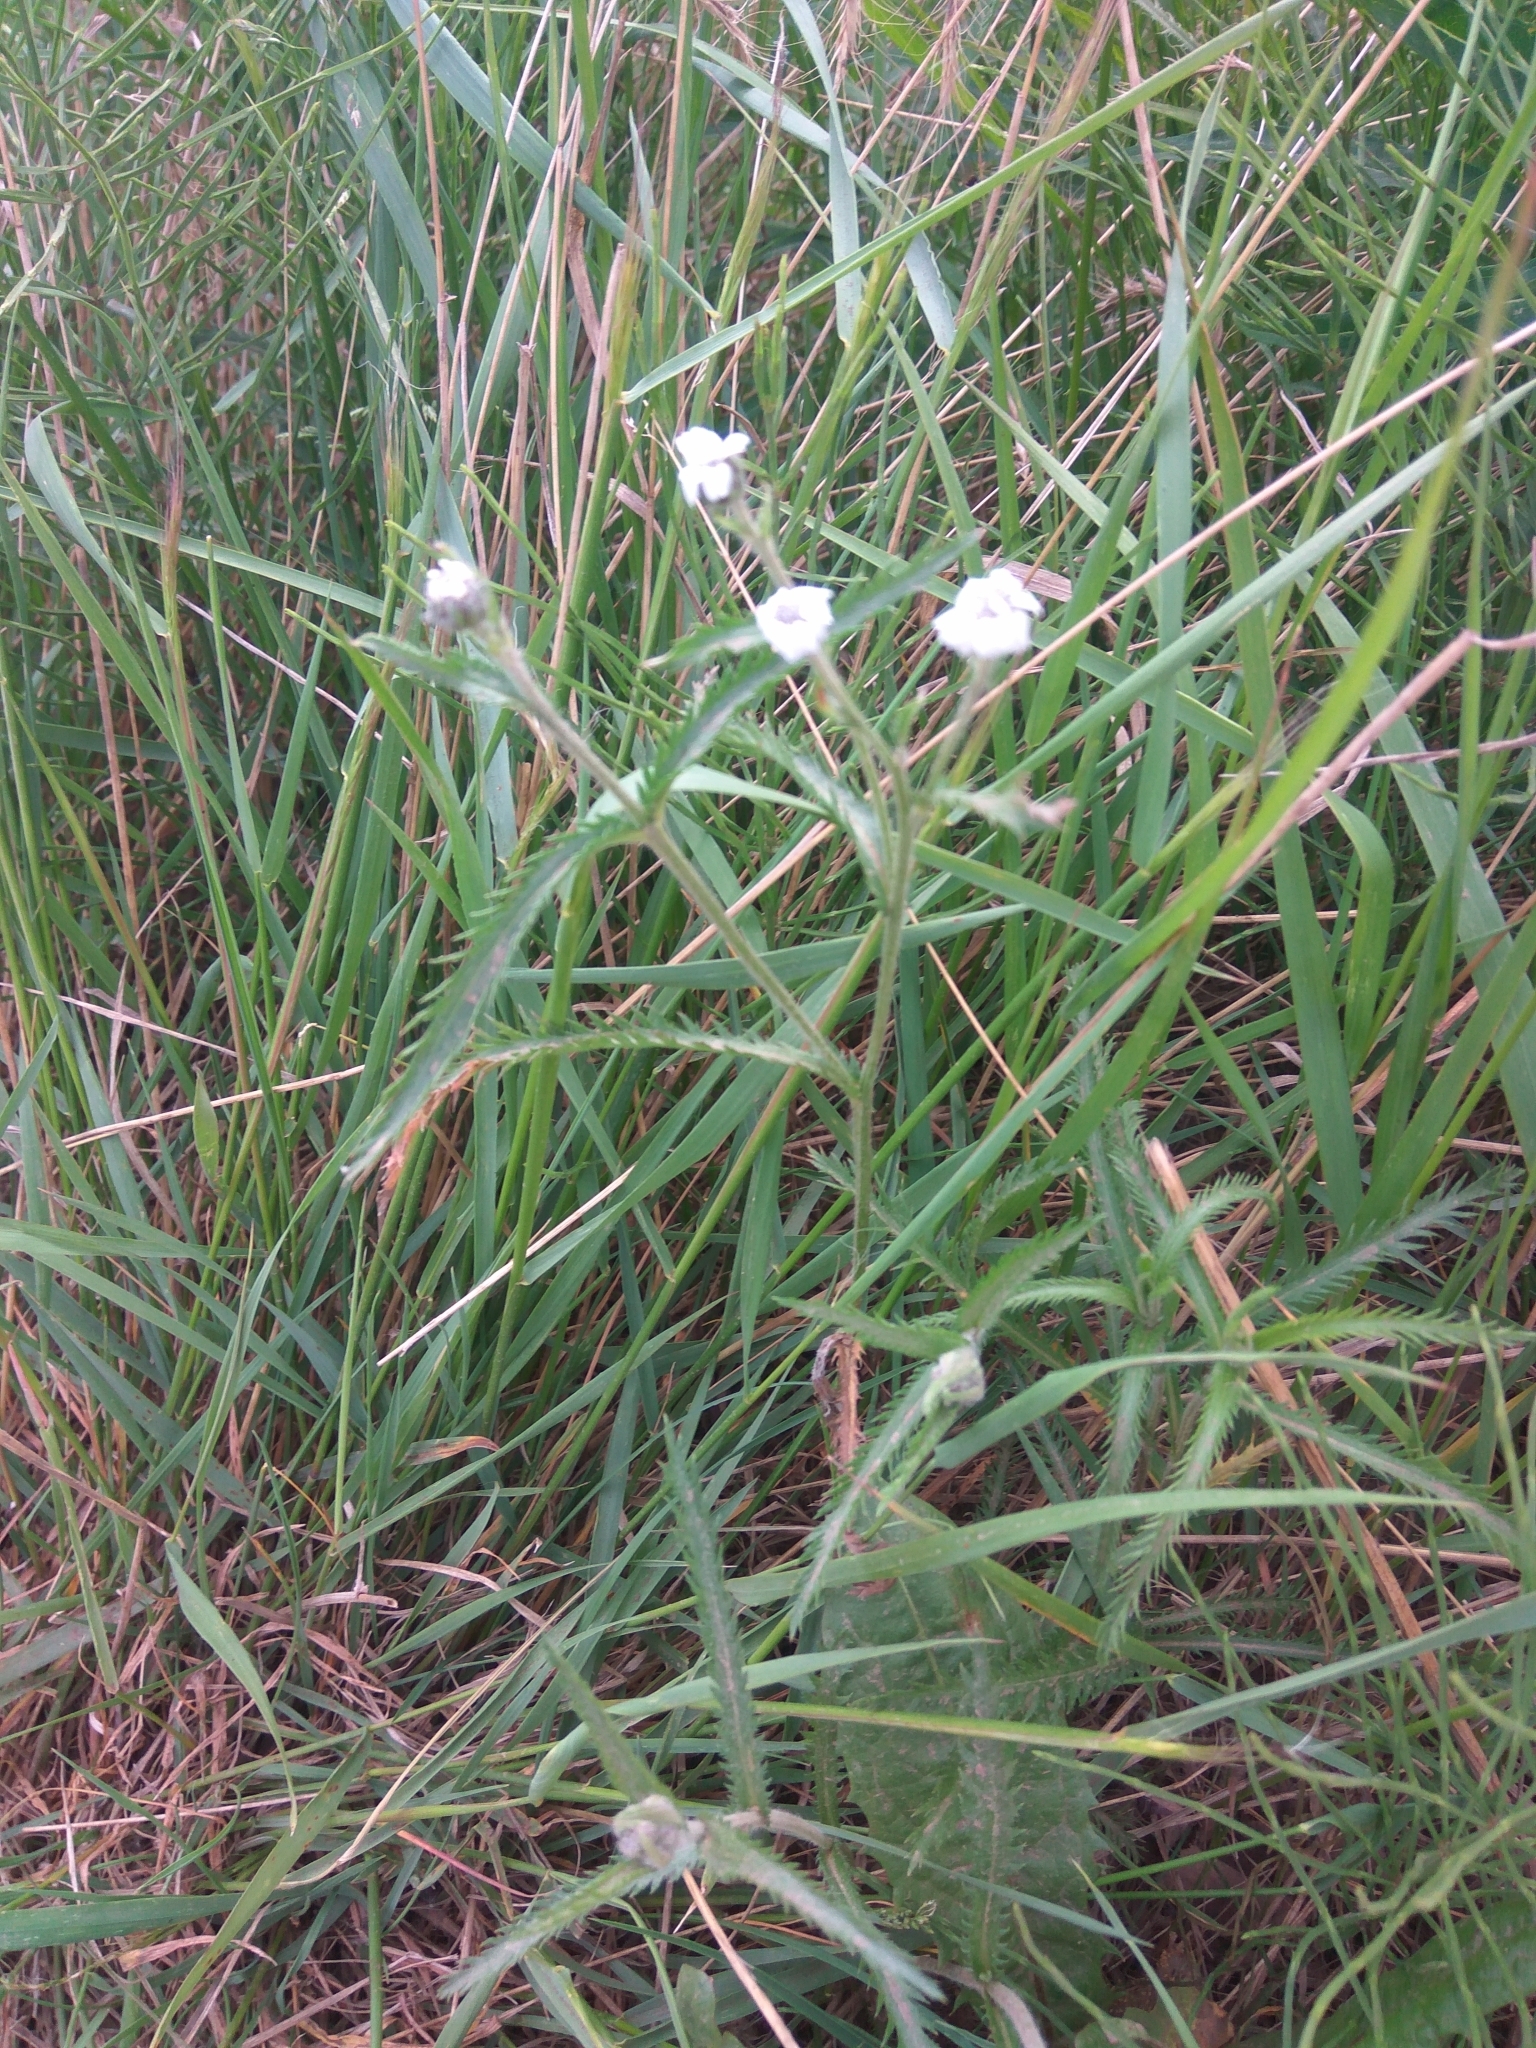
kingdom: Plantae
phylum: Tracheophyta
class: Magnoliopsida
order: Asterales
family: Asteraceae
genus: Achillea
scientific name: Achillea alpina
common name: Siberian yarrow
